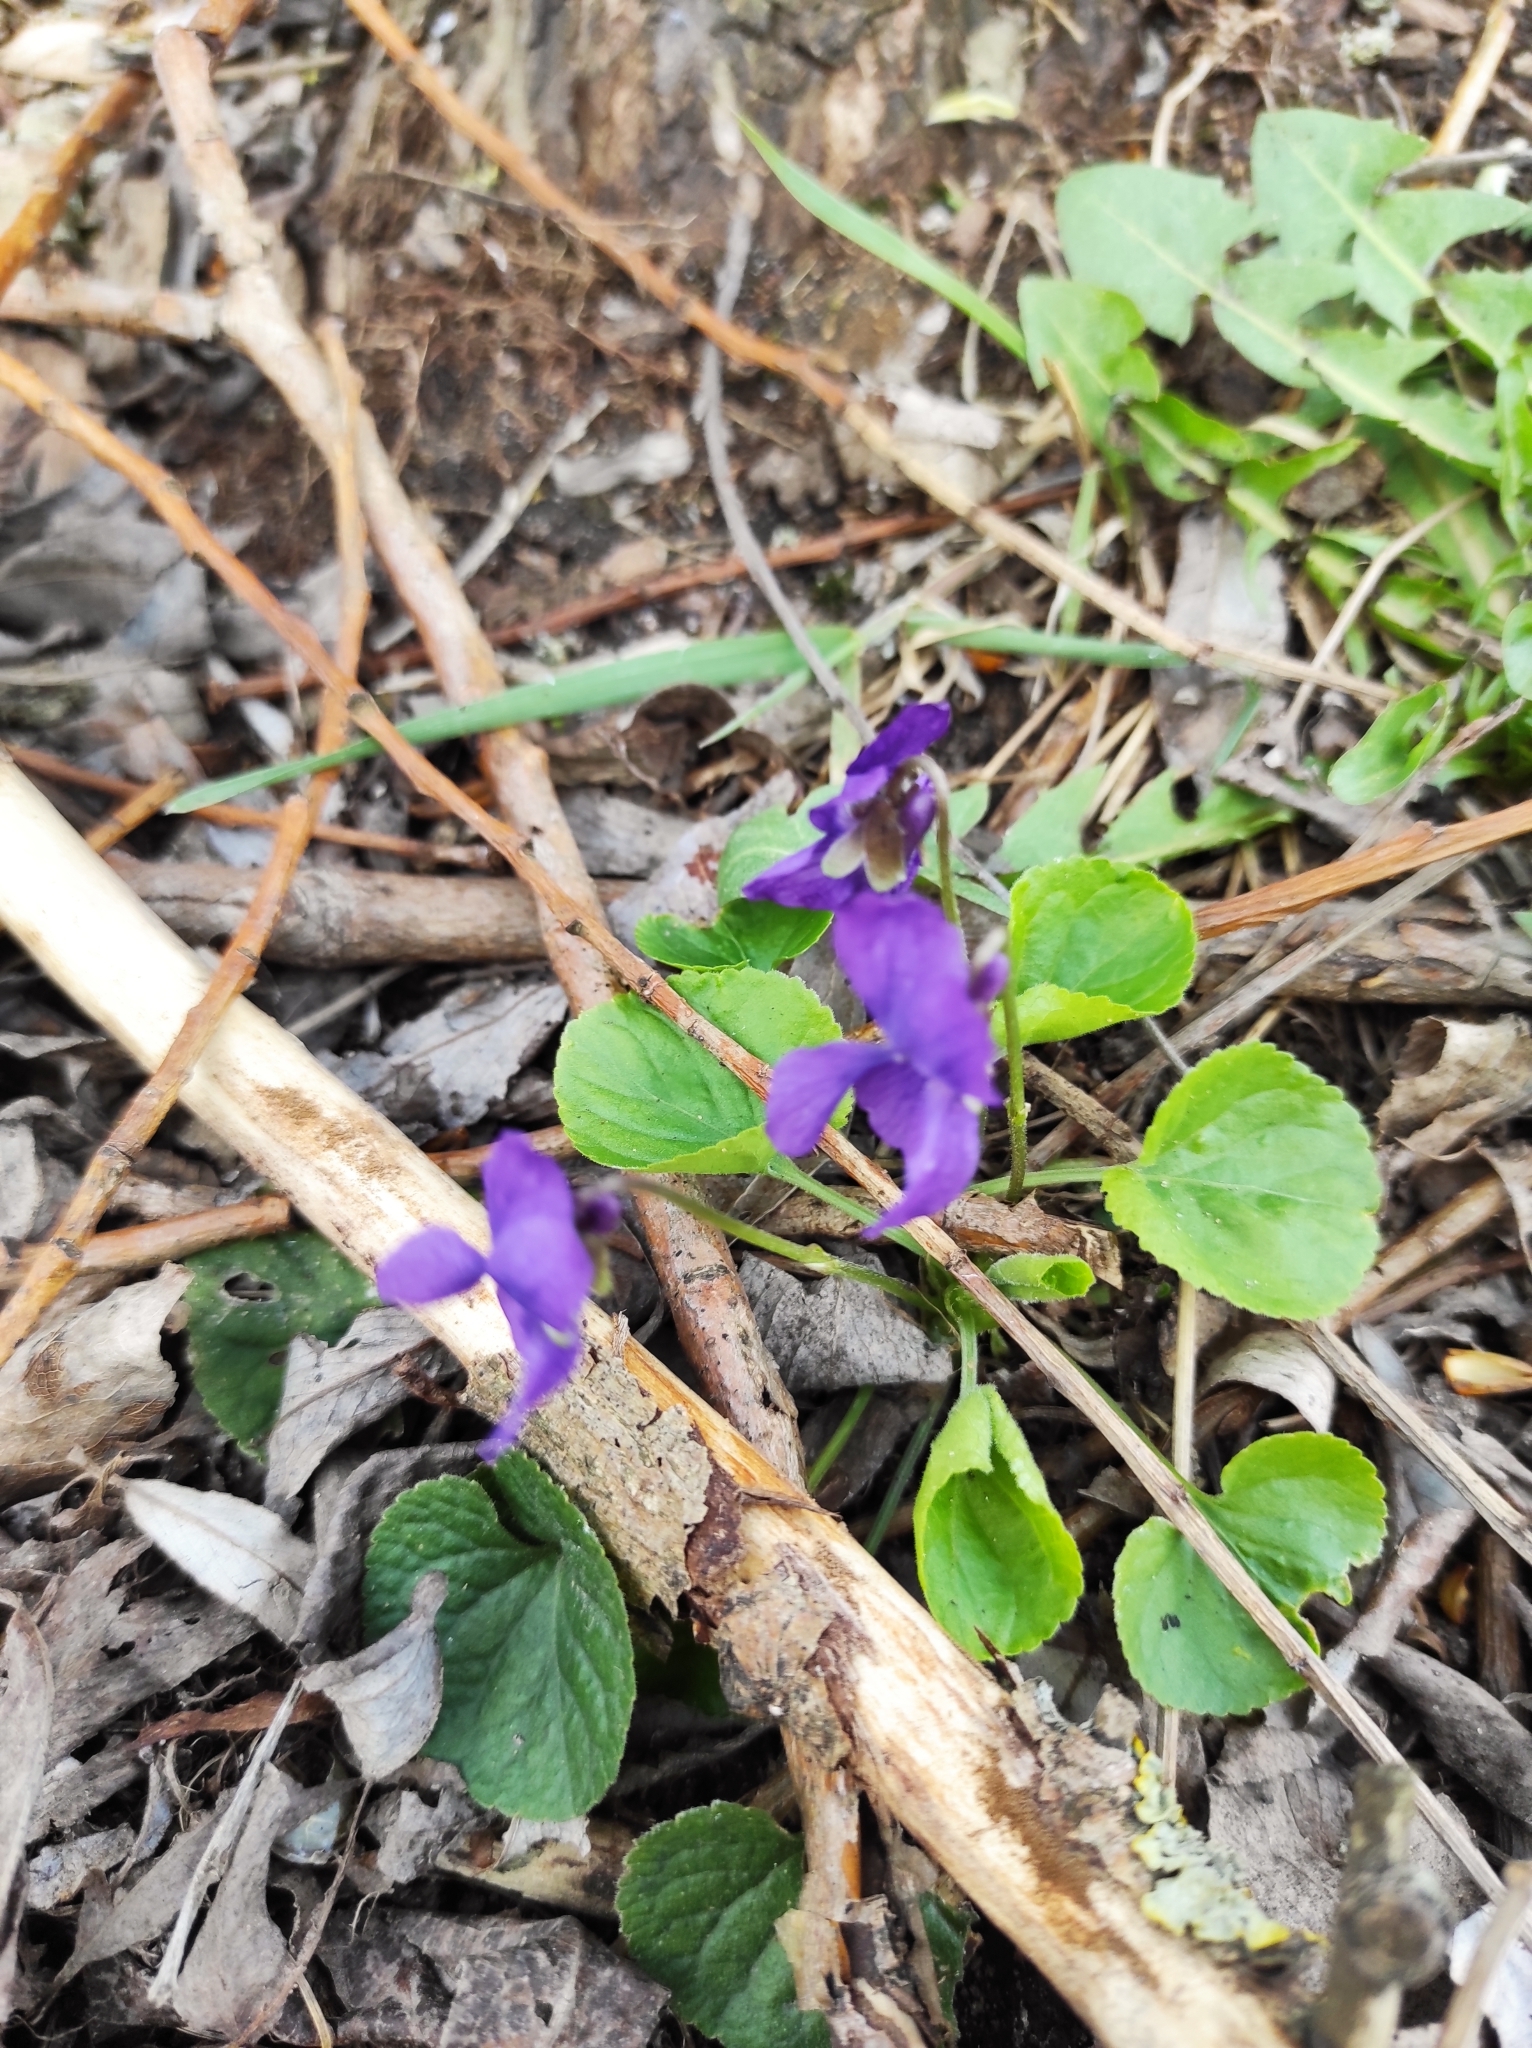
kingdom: Plantae
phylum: Tracheophyta
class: Magnoliopsida
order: Malpighiales
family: Violaceae
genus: Viola
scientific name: Viola odorata
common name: Sweet violet
